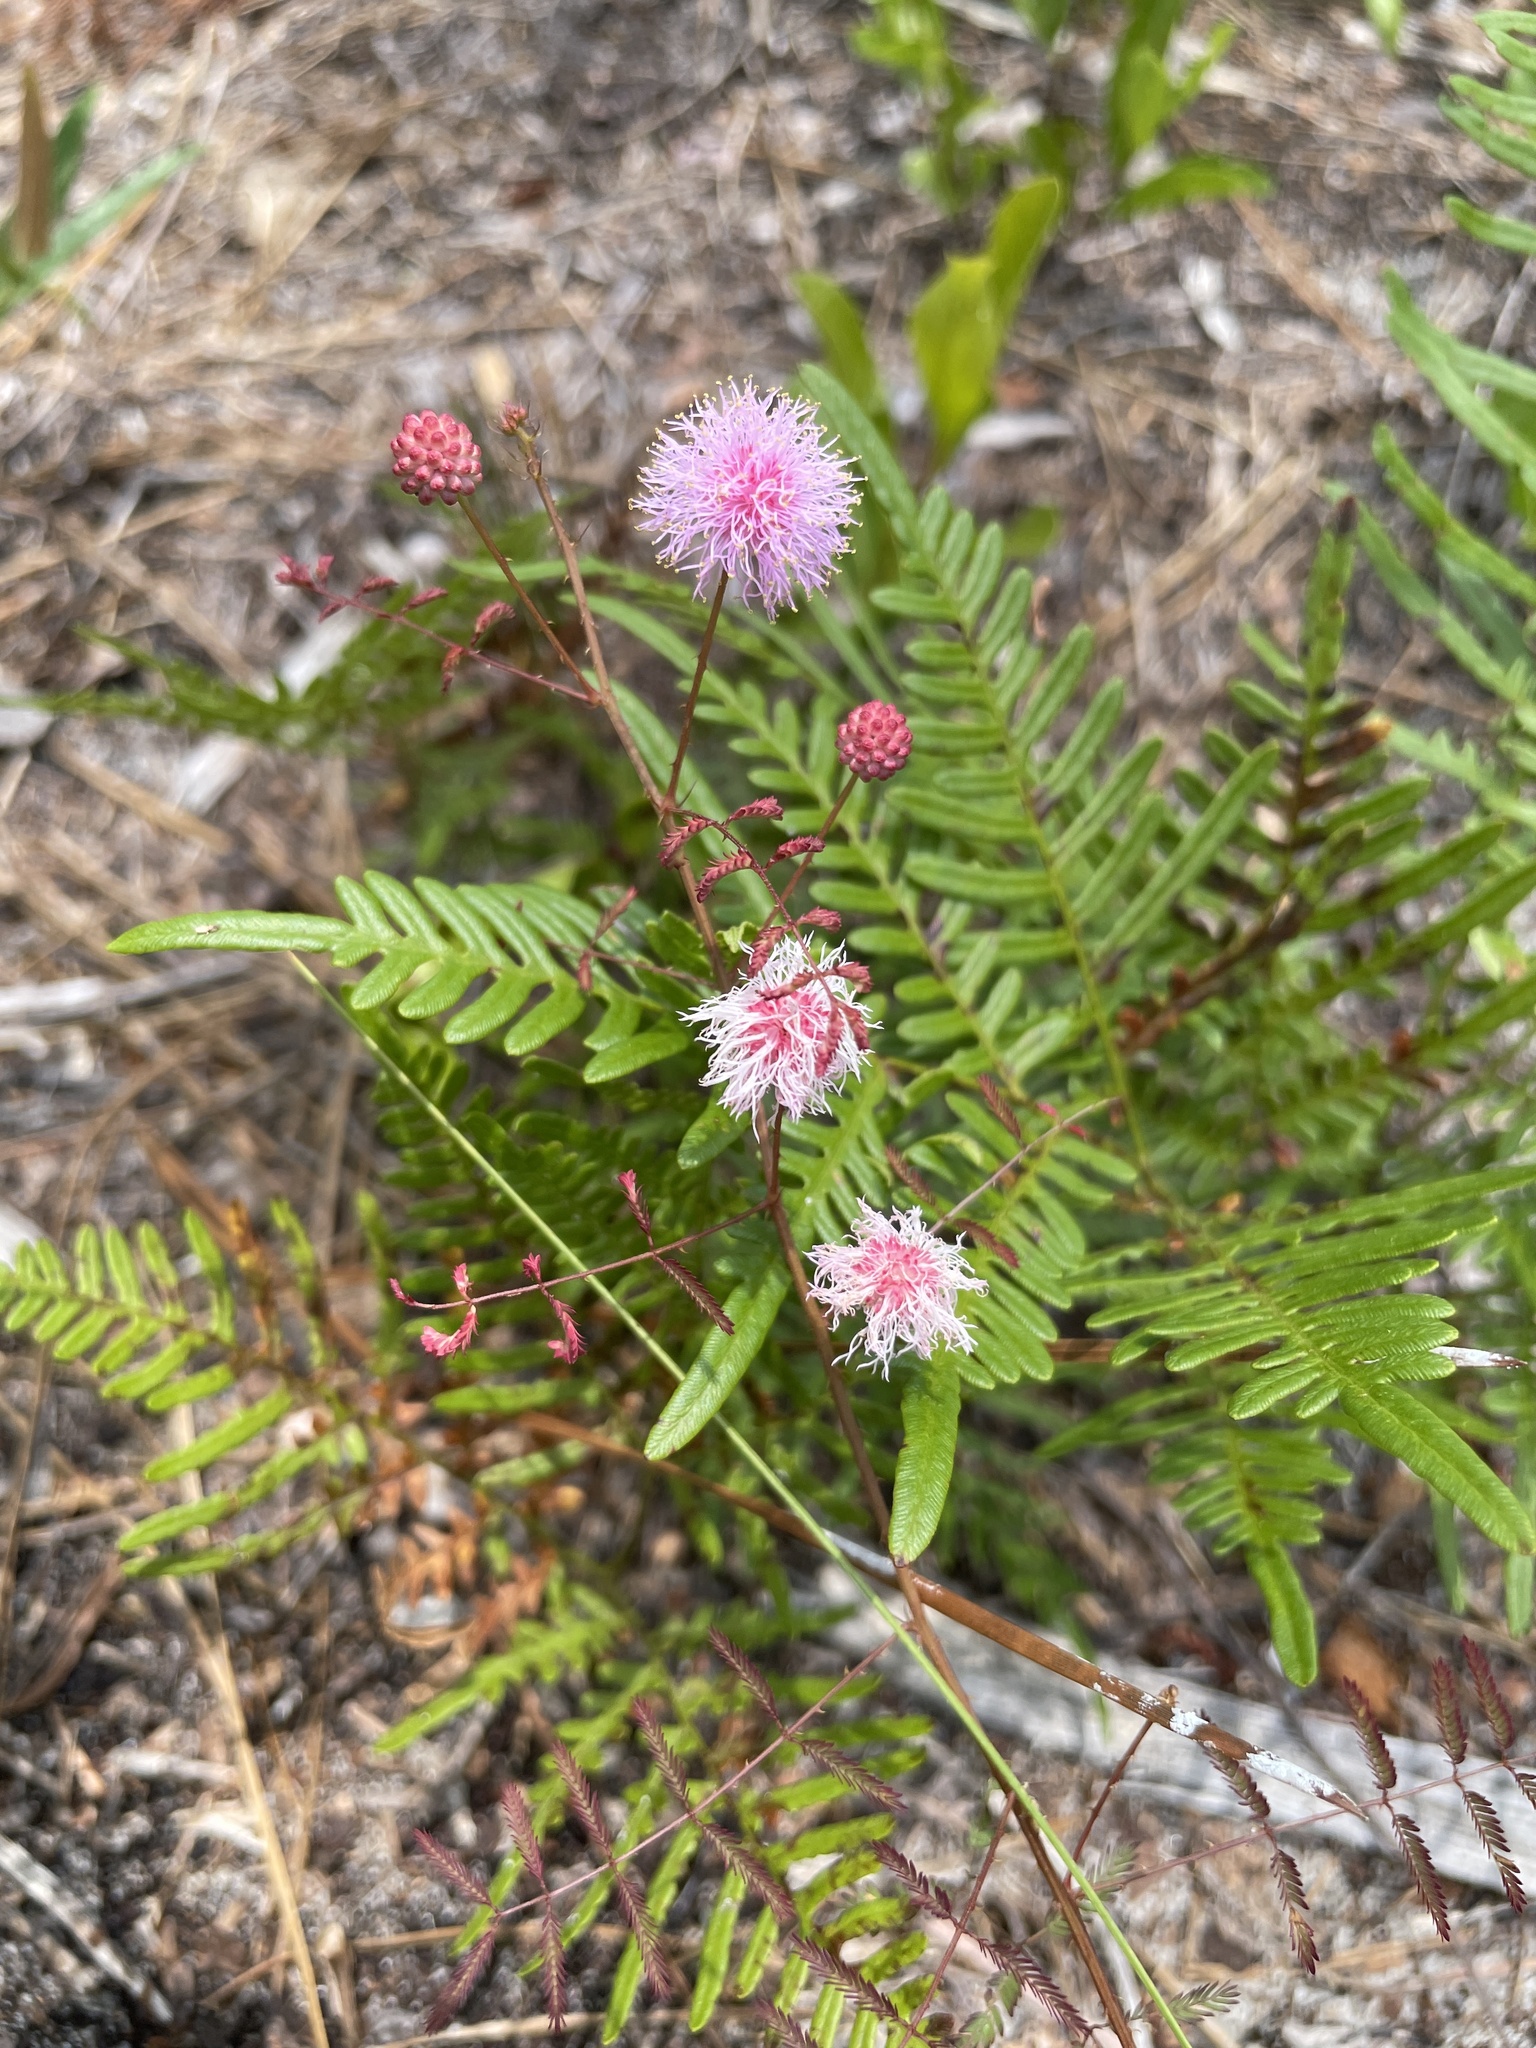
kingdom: Plantae
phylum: Tracheophyta
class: Magnoliopsida
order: Fabales
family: Fabaceae
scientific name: Fabaceae
